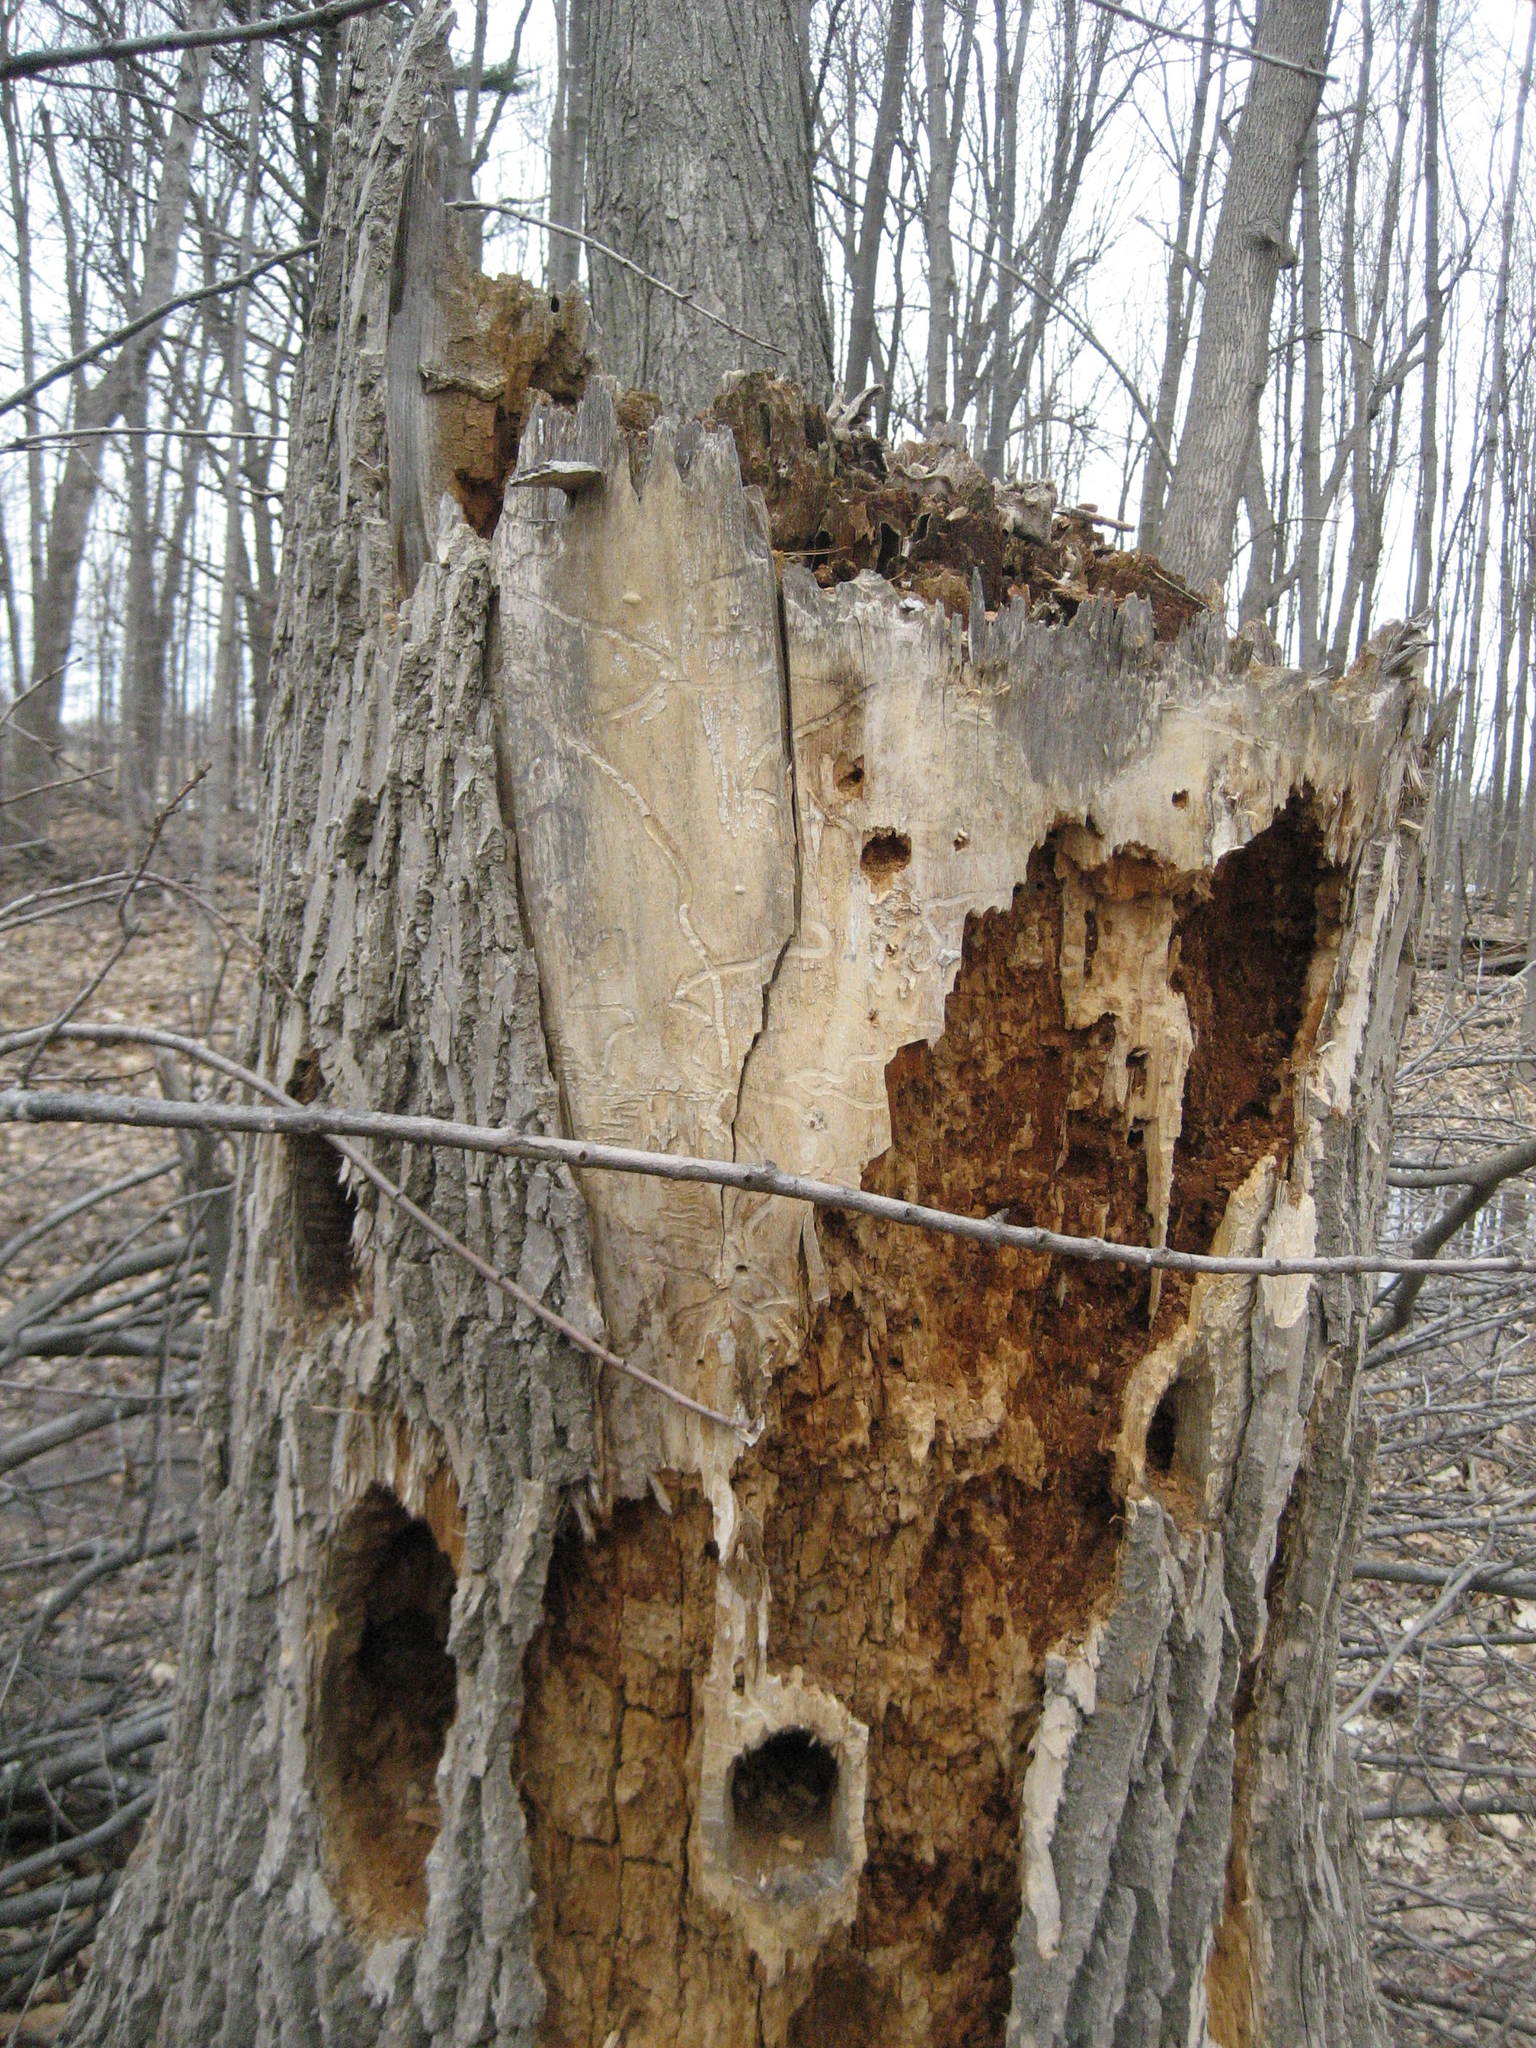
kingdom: Animalia
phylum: Arthropoda
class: Insecta
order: Coleoptera
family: Buprestidae
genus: Agrilus
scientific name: Agrilus planipennis
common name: Emerald ash borer
